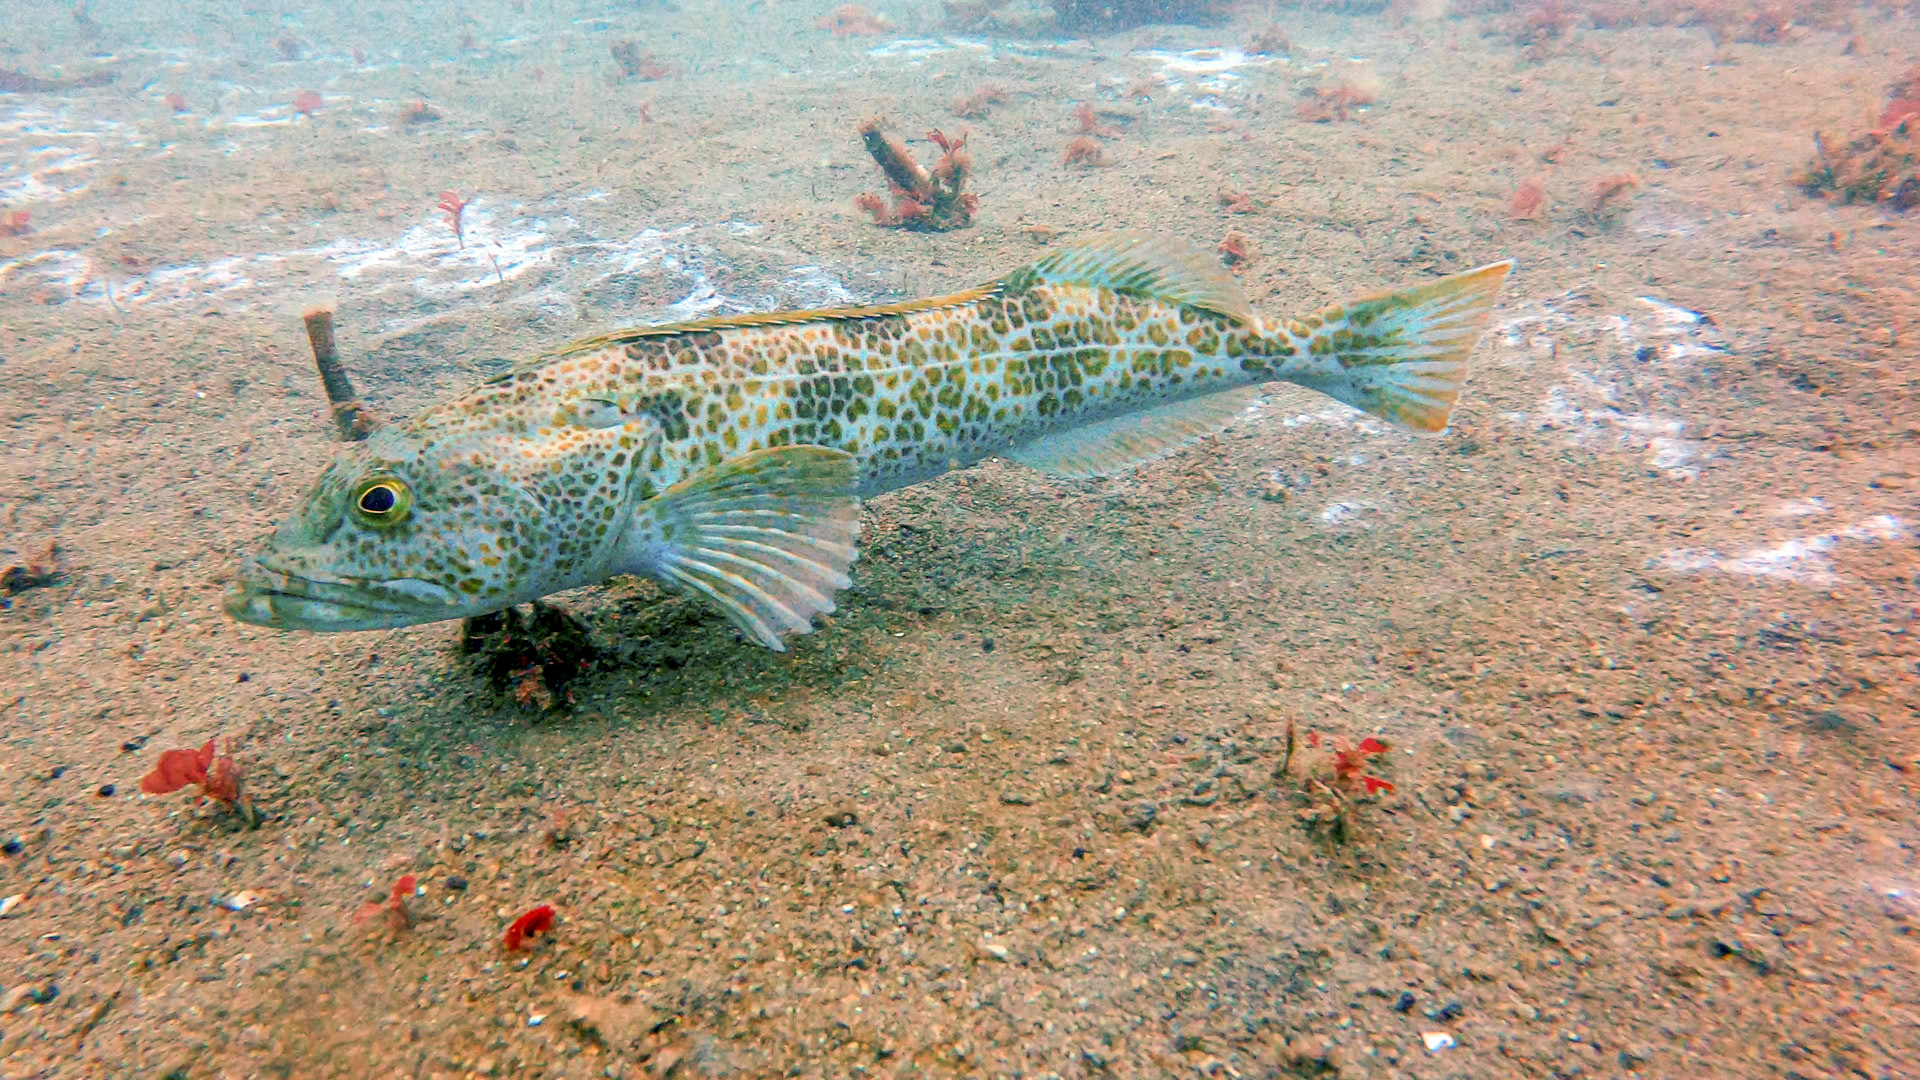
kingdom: Animalia
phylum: Chordata
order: Scorpaeniformes
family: Hexagrammidae
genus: Ophiodon
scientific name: Ophiodon elongatus
